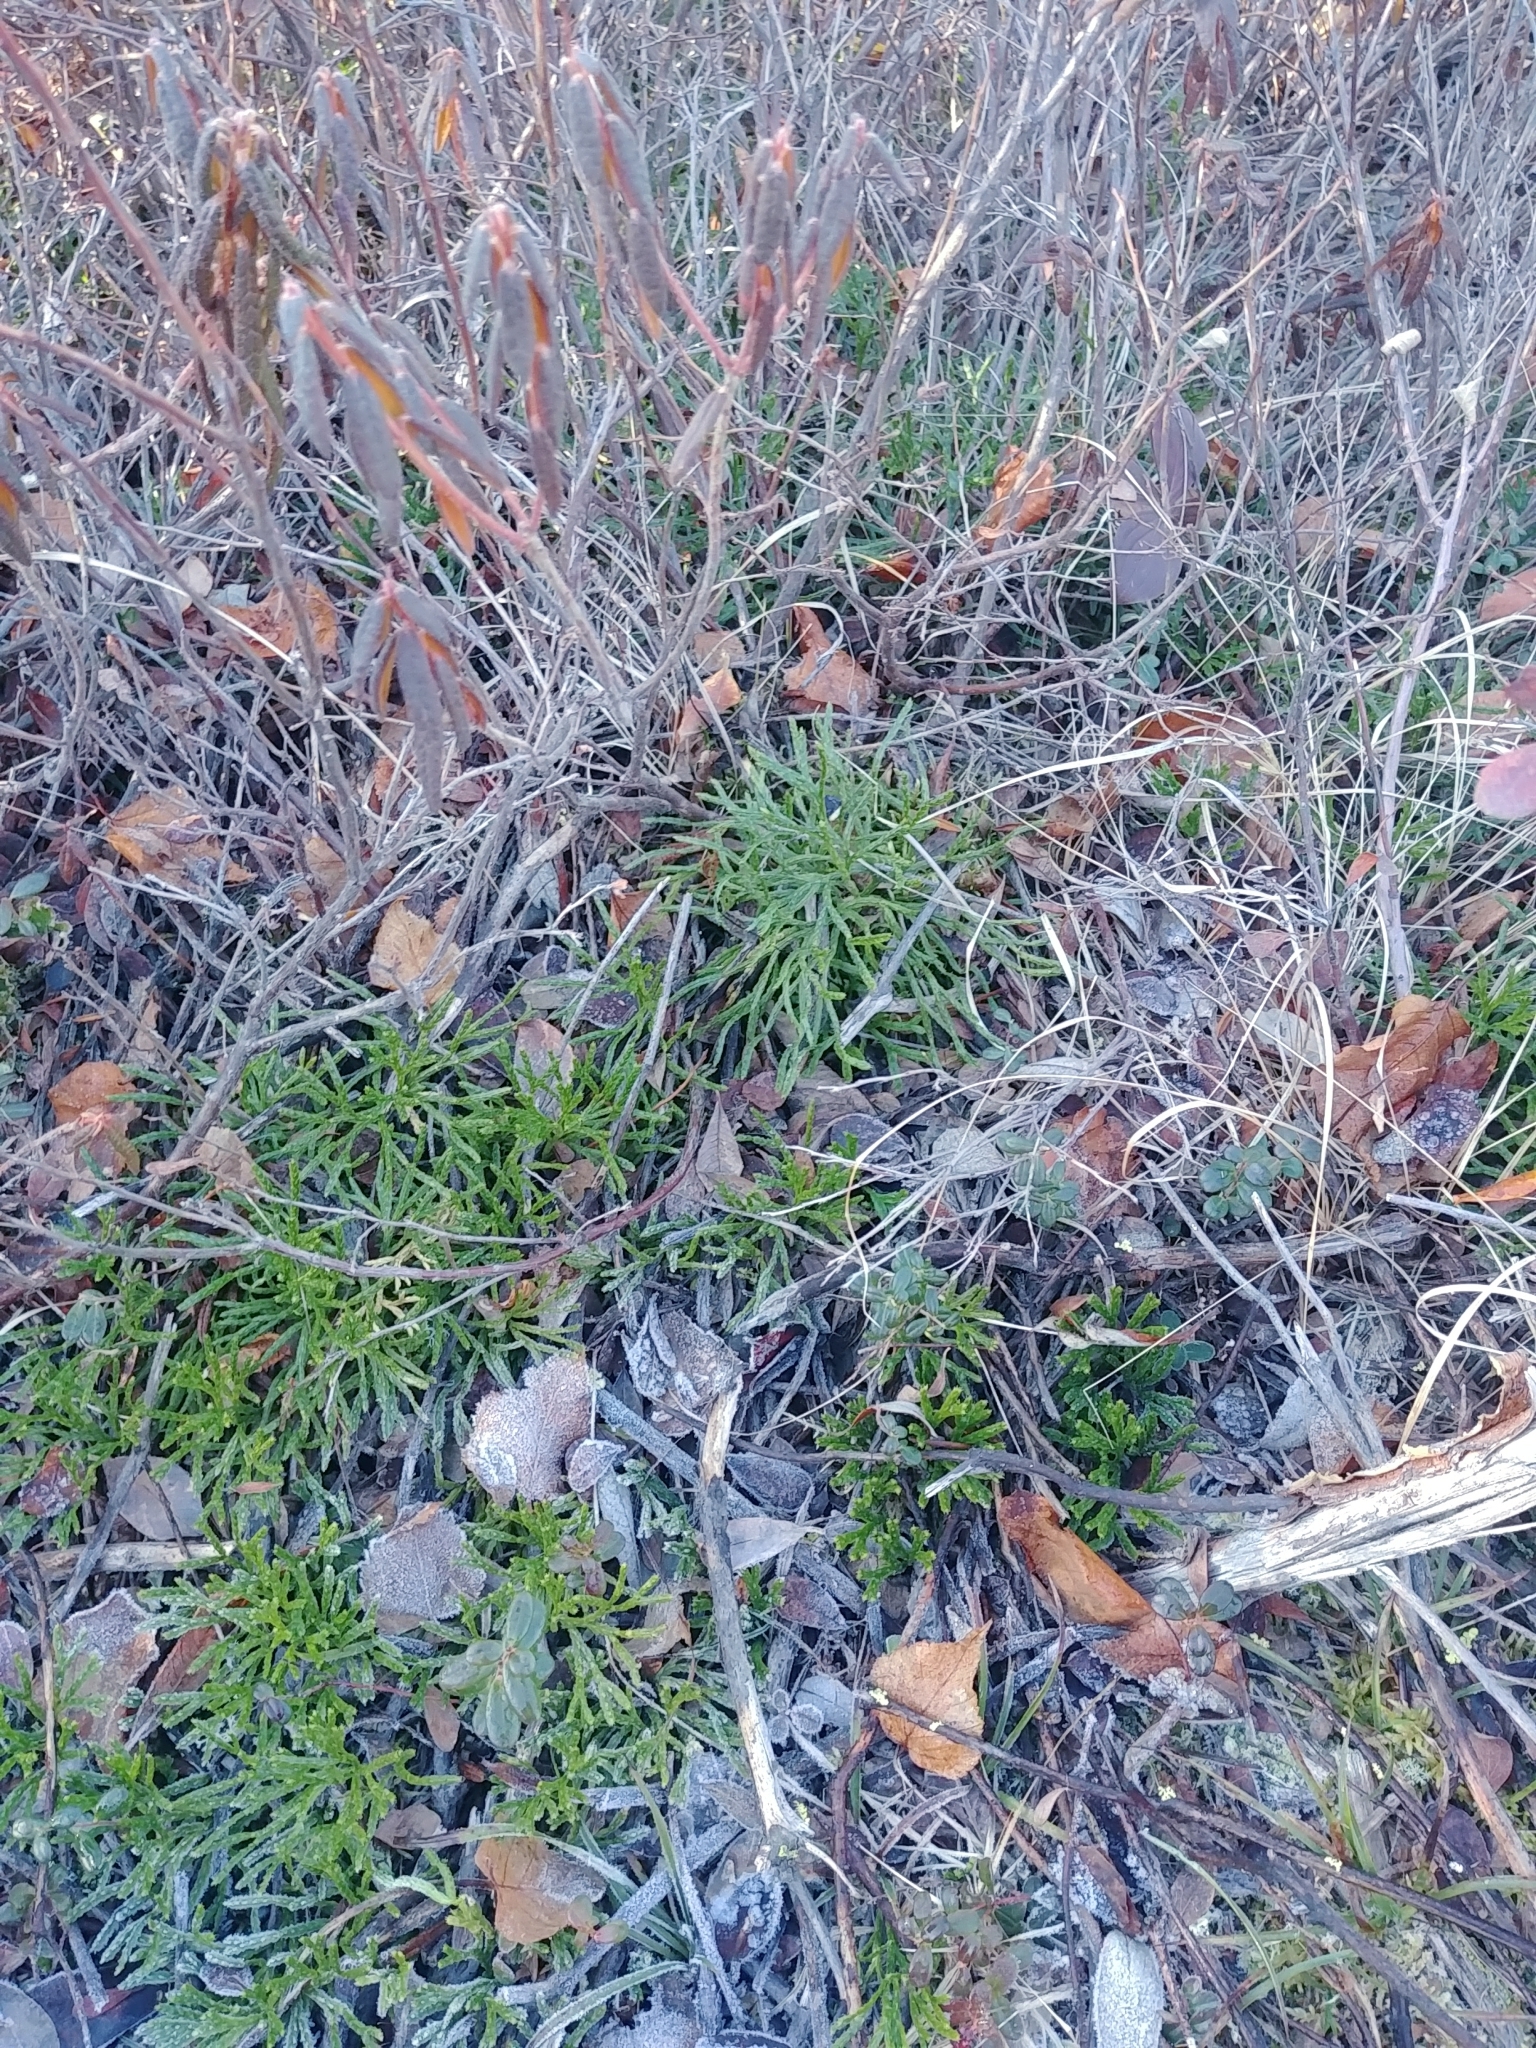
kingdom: Plantae
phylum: Tracheophyta
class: Lycopodiopsida
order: Lycopodiales
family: Lycopodiaceae
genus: Diphasiastrum
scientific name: Diphasiastrum complanatum
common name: Northern running-pine
